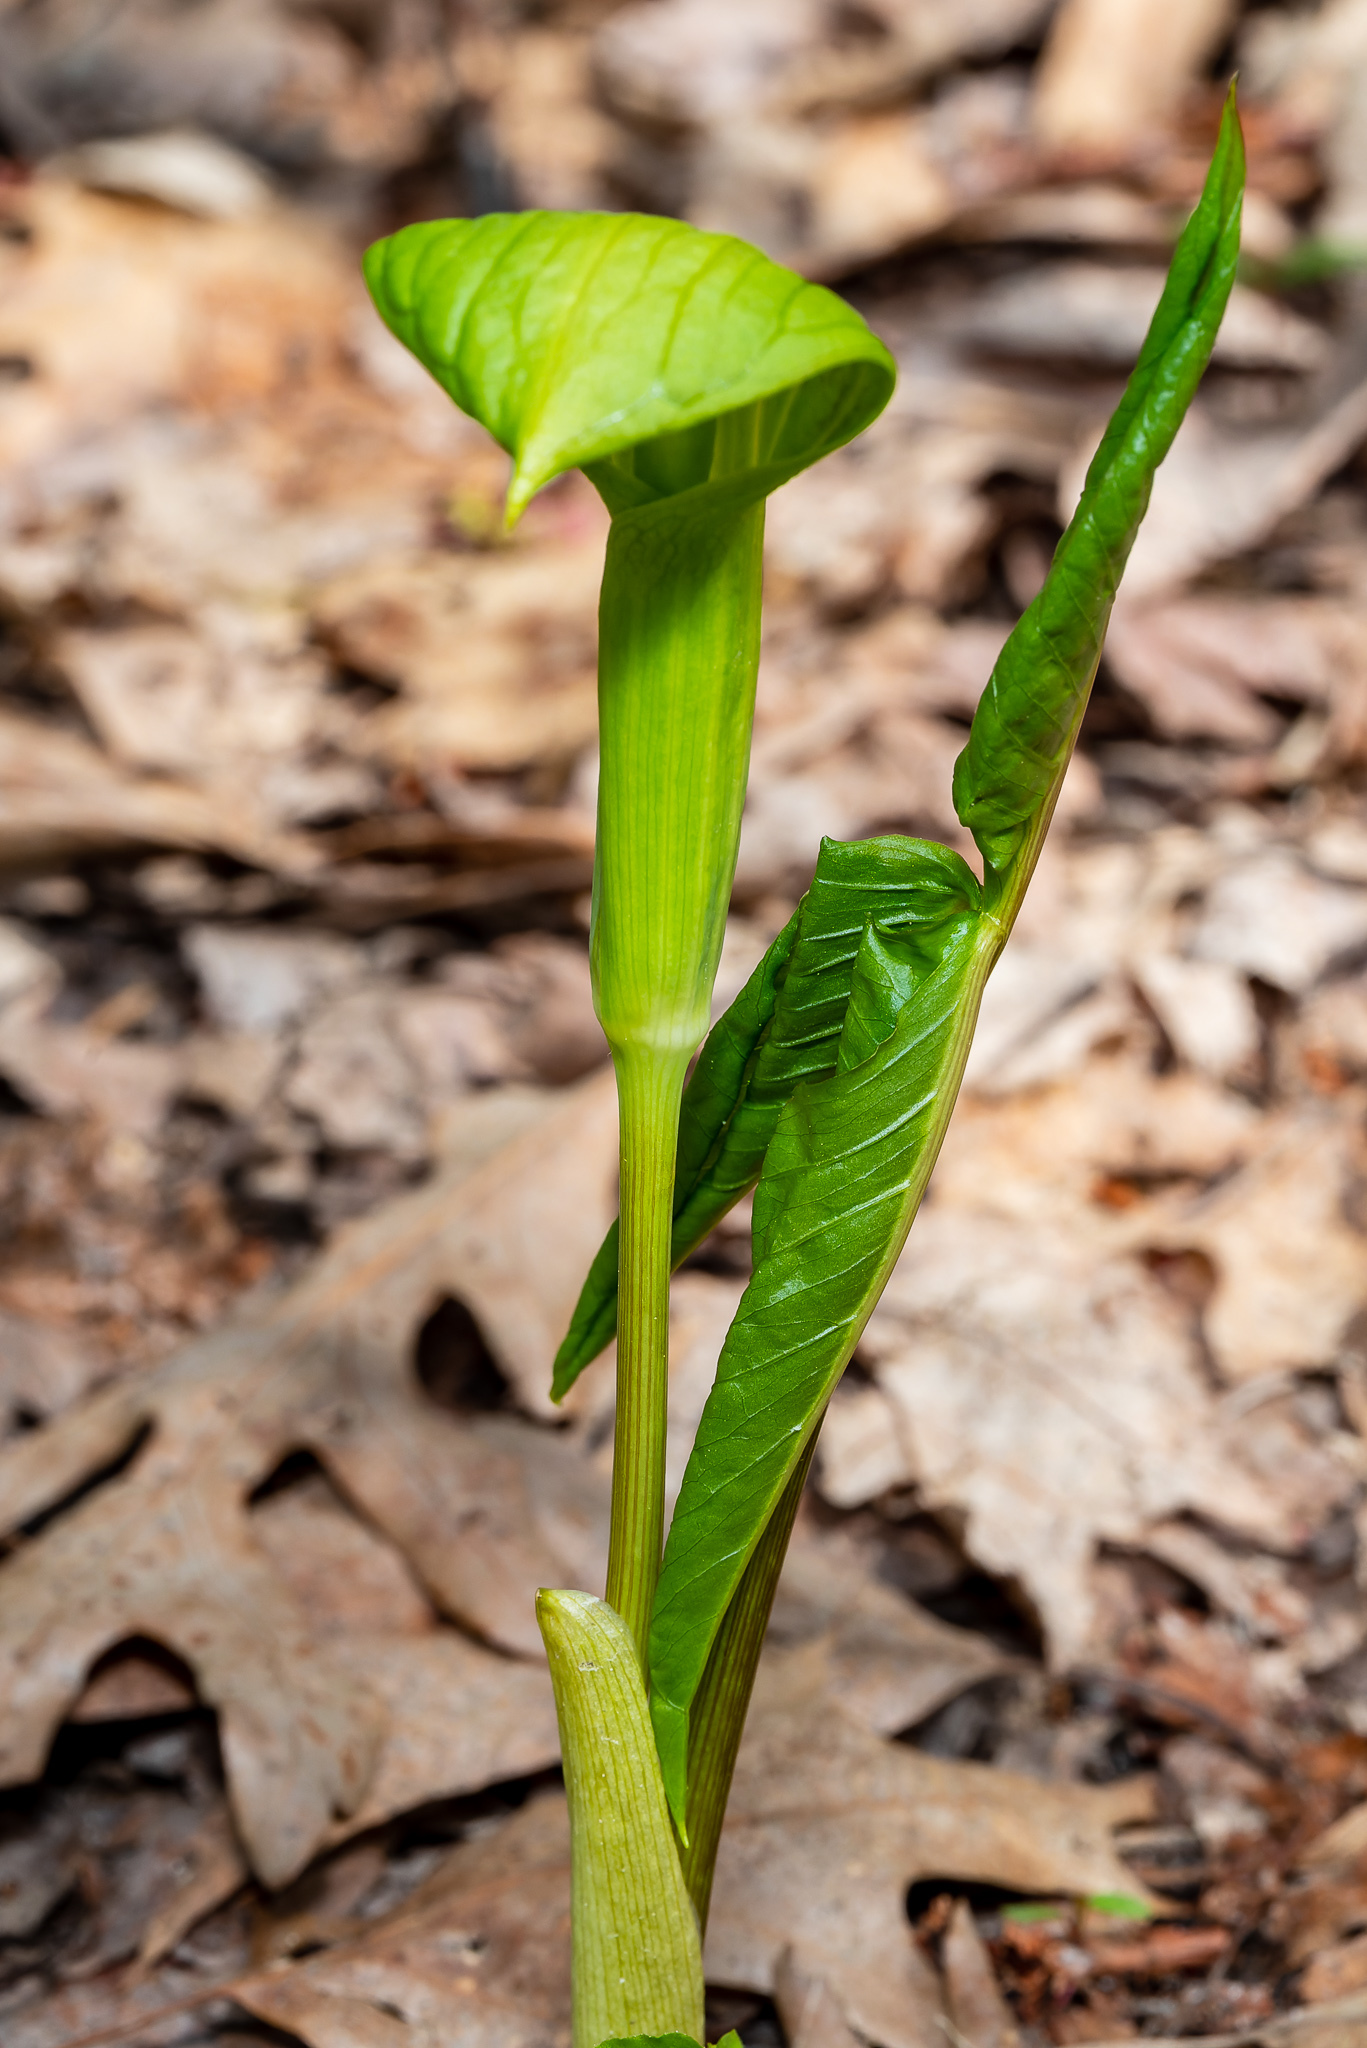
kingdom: Plantae
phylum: Tracheophyta
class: Liliopsida
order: Alismatales
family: Araceae
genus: Arisaema
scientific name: Arisaema triphyllum
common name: Jack-in-the-pulpit
